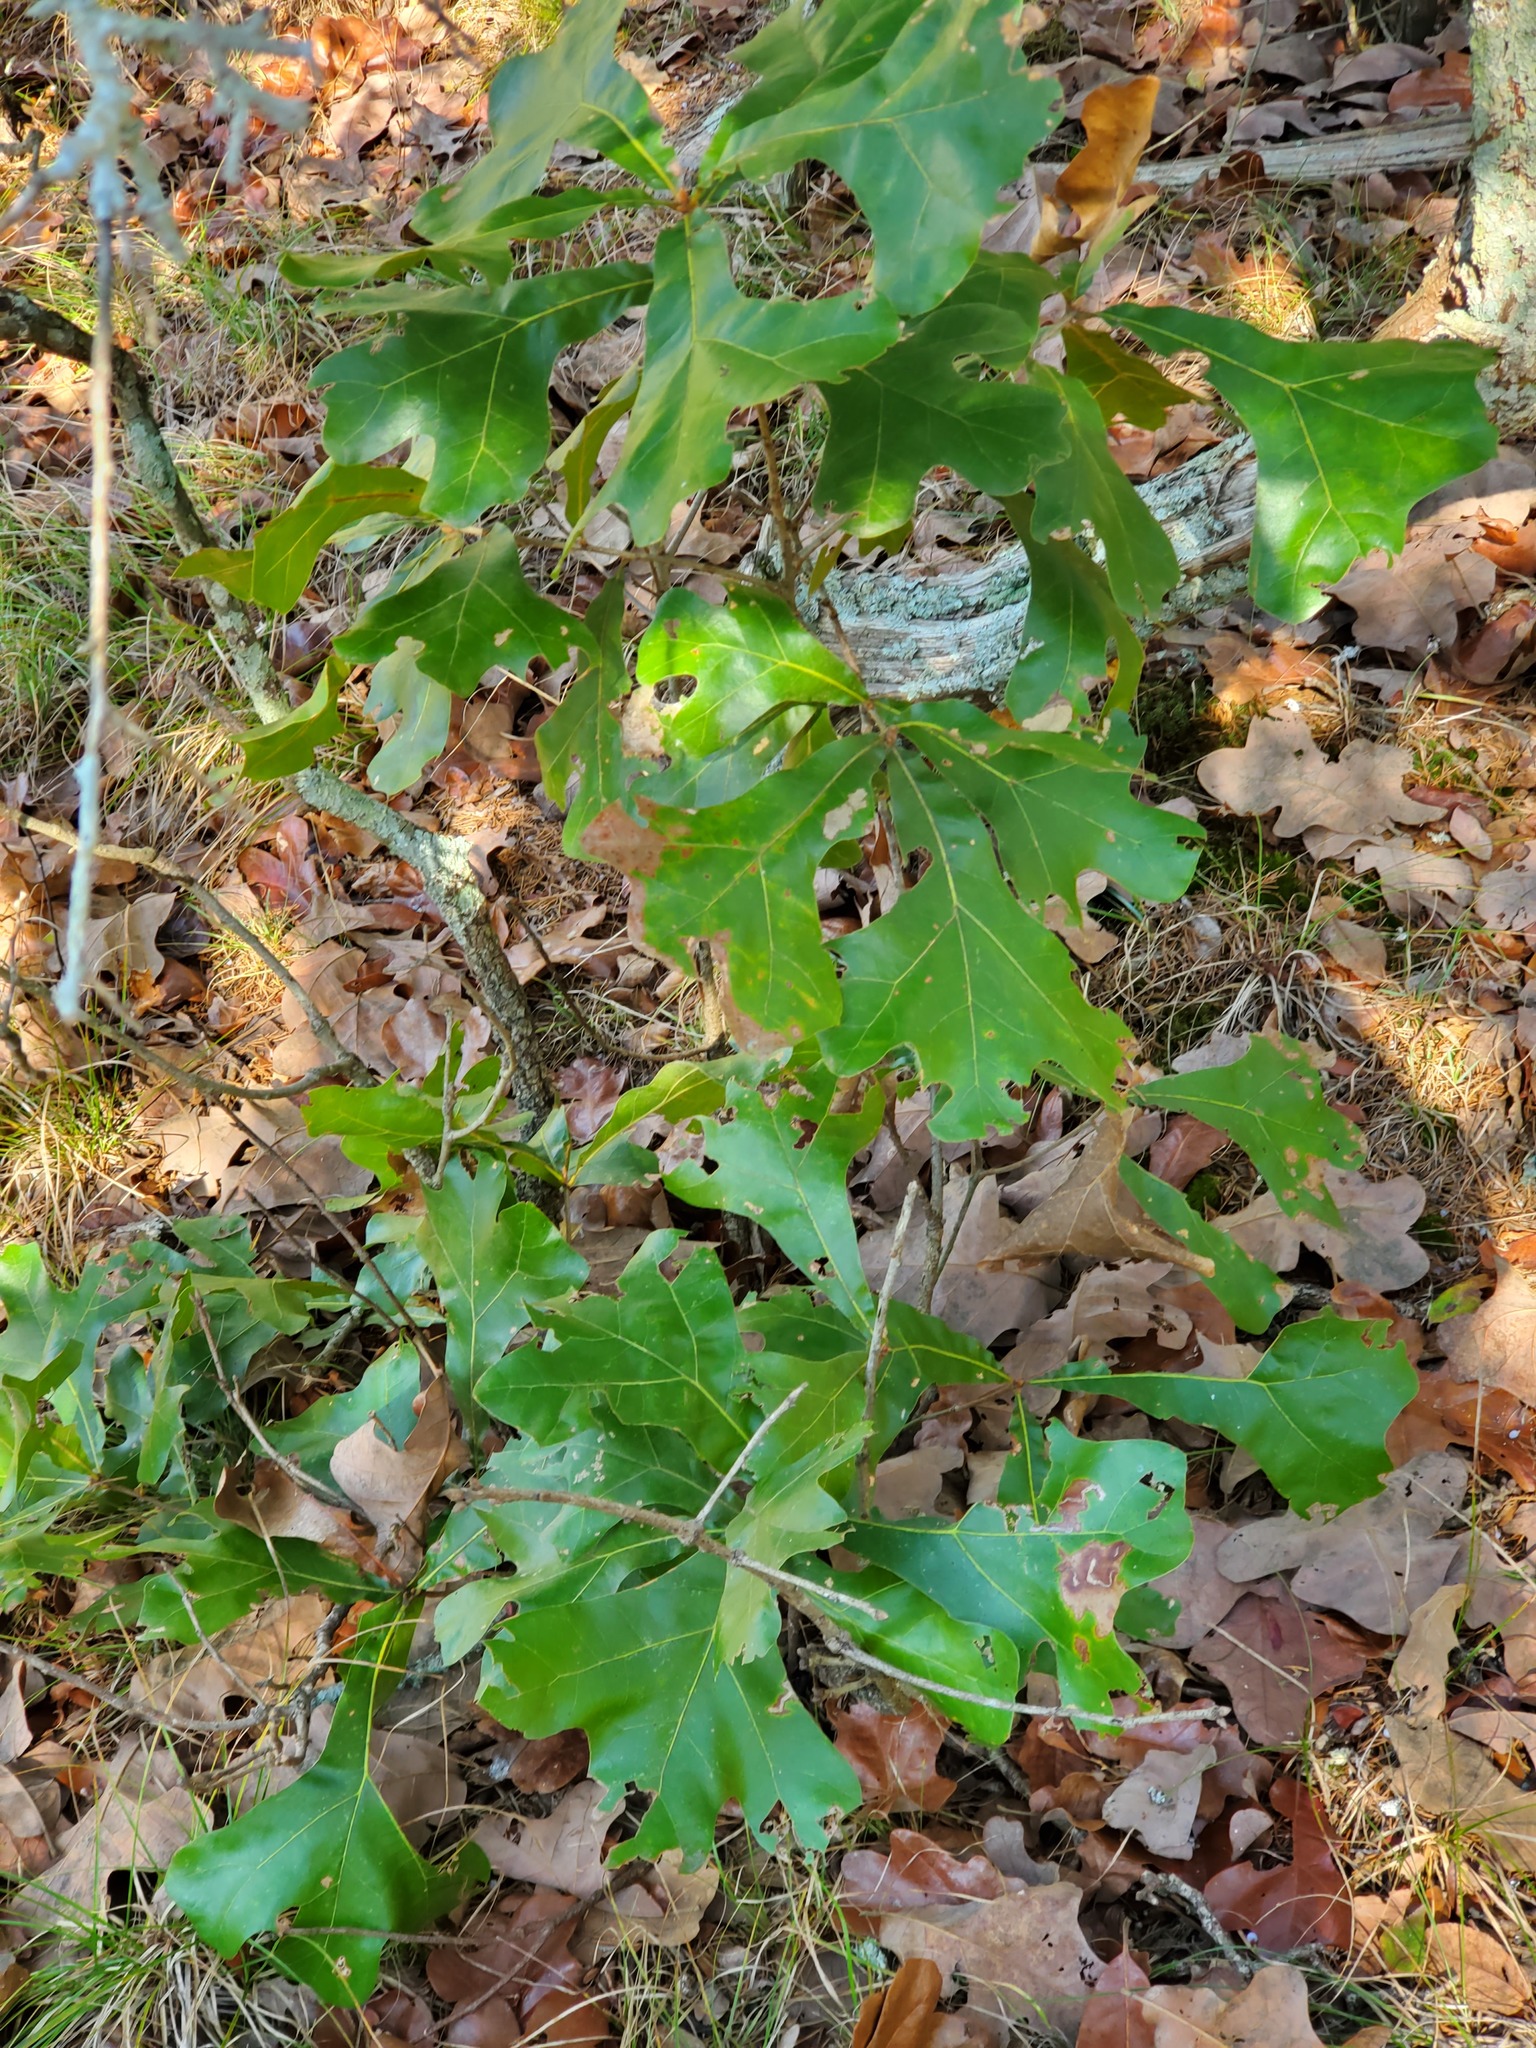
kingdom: Plantae
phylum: Tracheophyta
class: Magnoliopsida
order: Fagales
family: Fagaceae
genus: Quercus
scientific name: Quercus marilandica
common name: Blackjack oak
